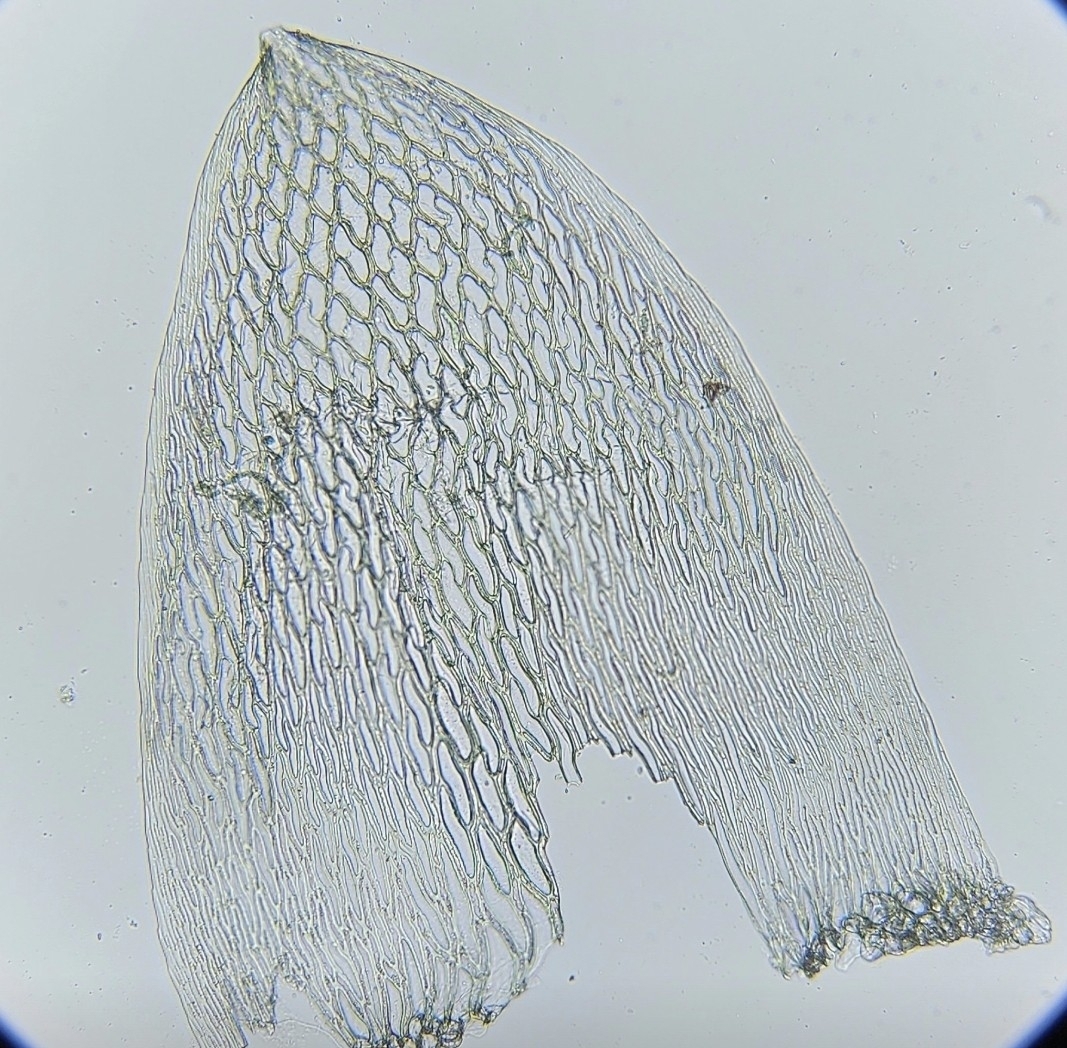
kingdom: Plantae
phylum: Bryophyta
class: Sphagnopsida
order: Sphagnales
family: Sphagnaceae
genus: Sphagnum
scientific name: Sphagnum fallax
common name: Flat-top peat moss
